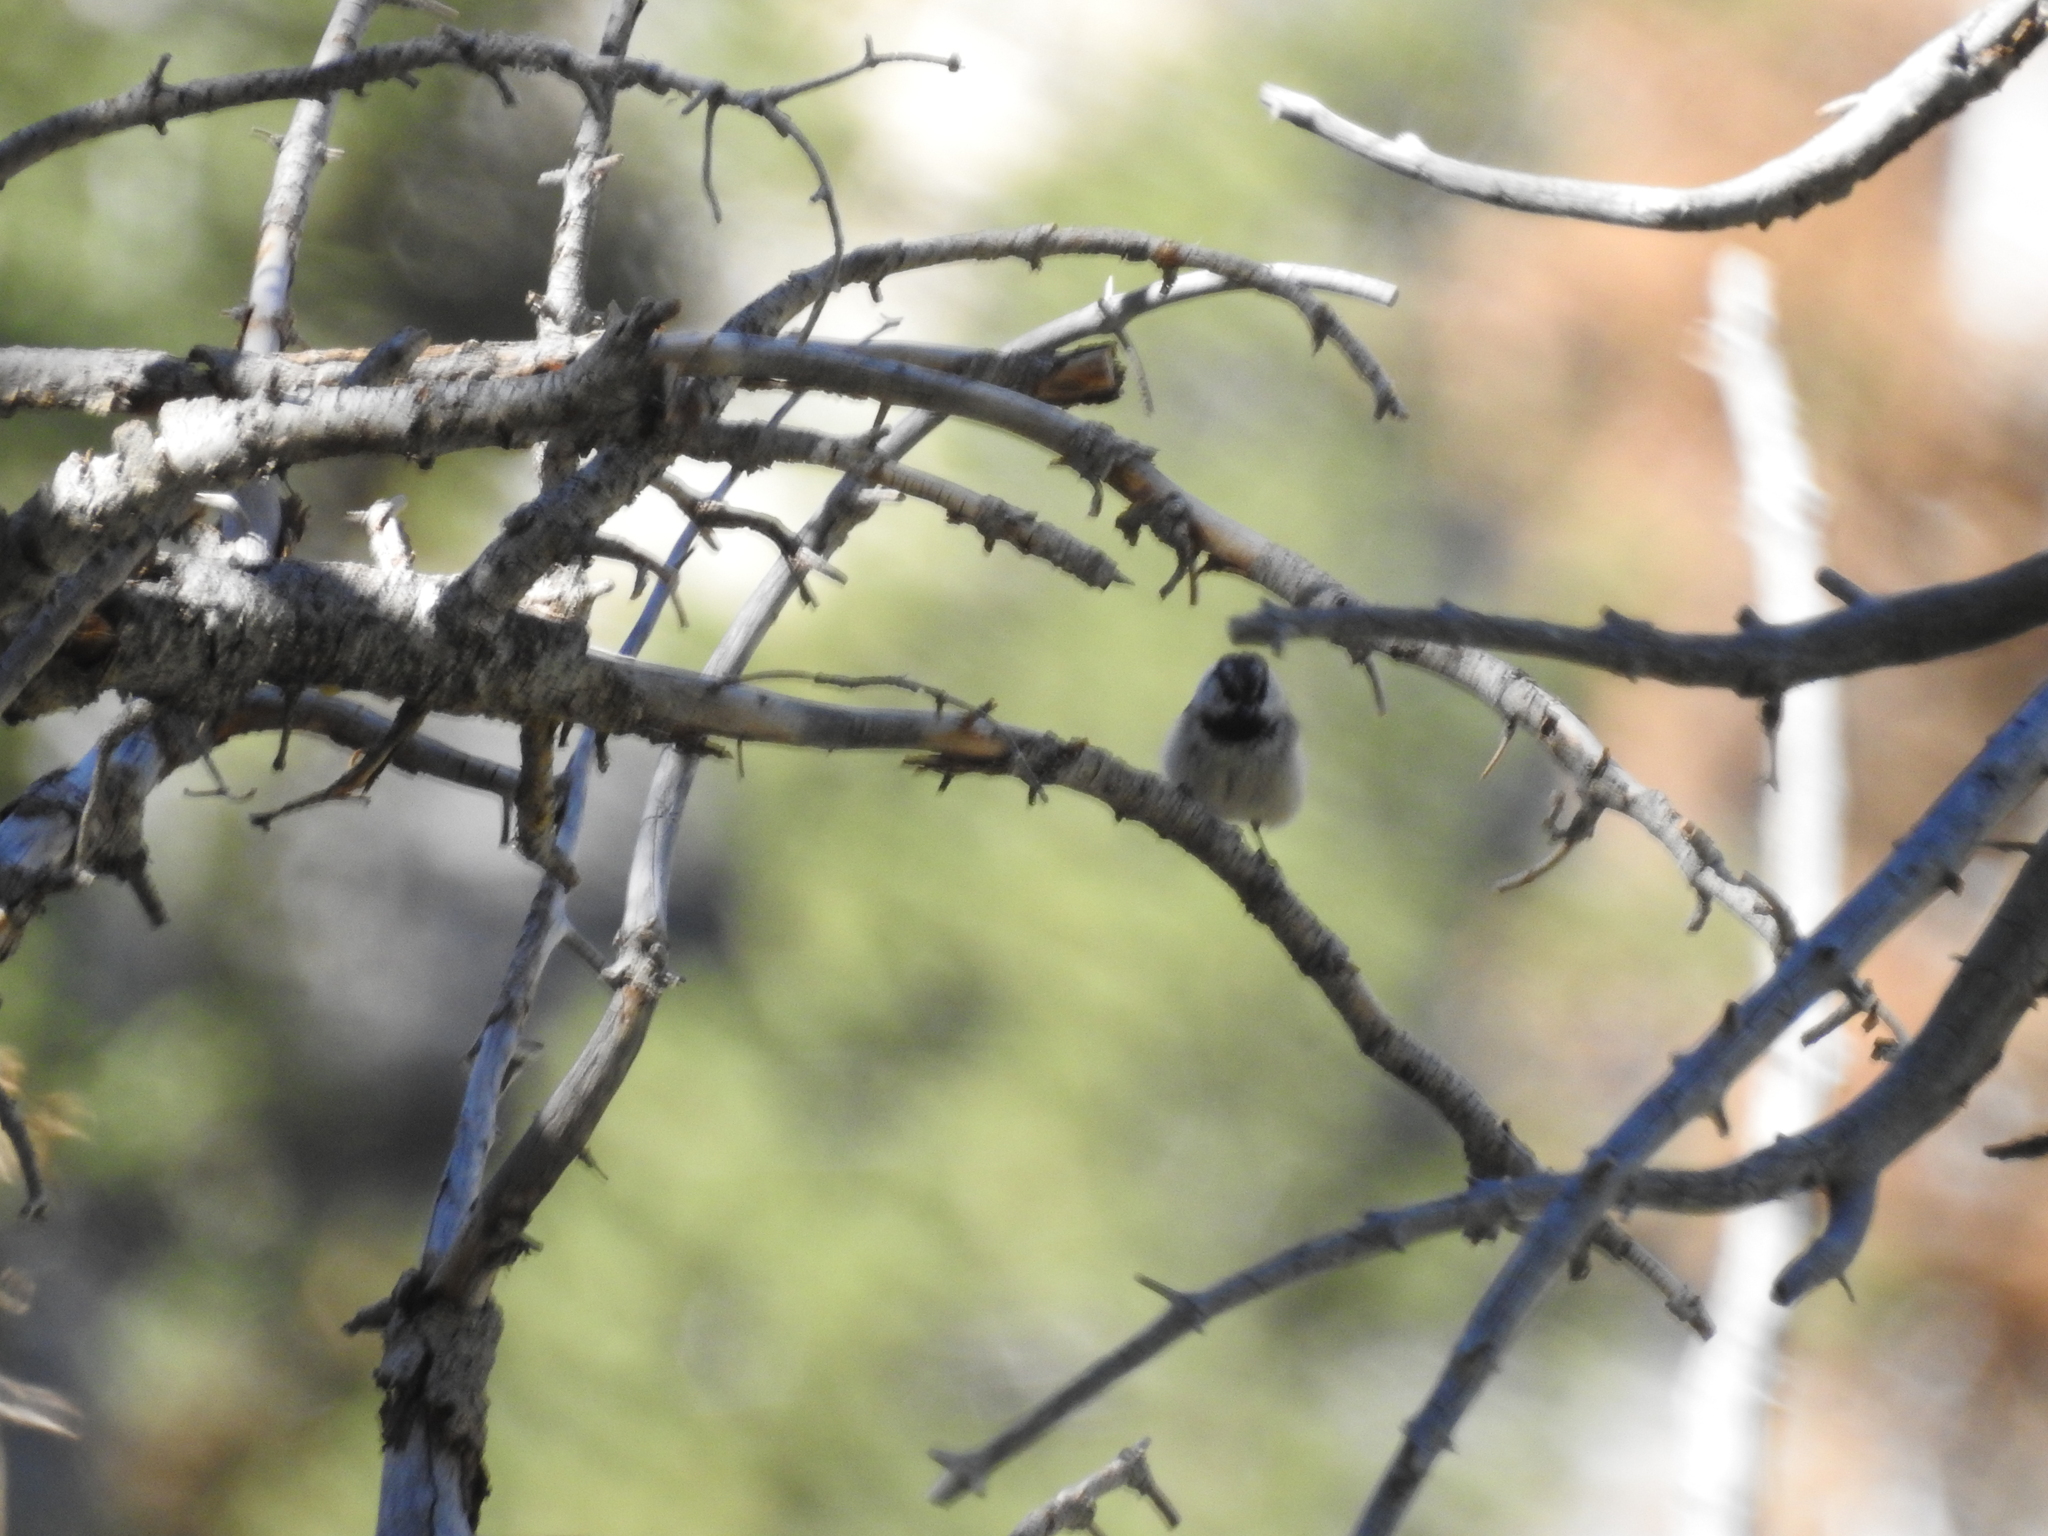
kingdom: Animalia
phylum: Chordata
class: Aves
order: Passeriformes
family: Paridae
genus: Poecile
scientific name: Poecile gambeli
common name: Mountain chickadee
